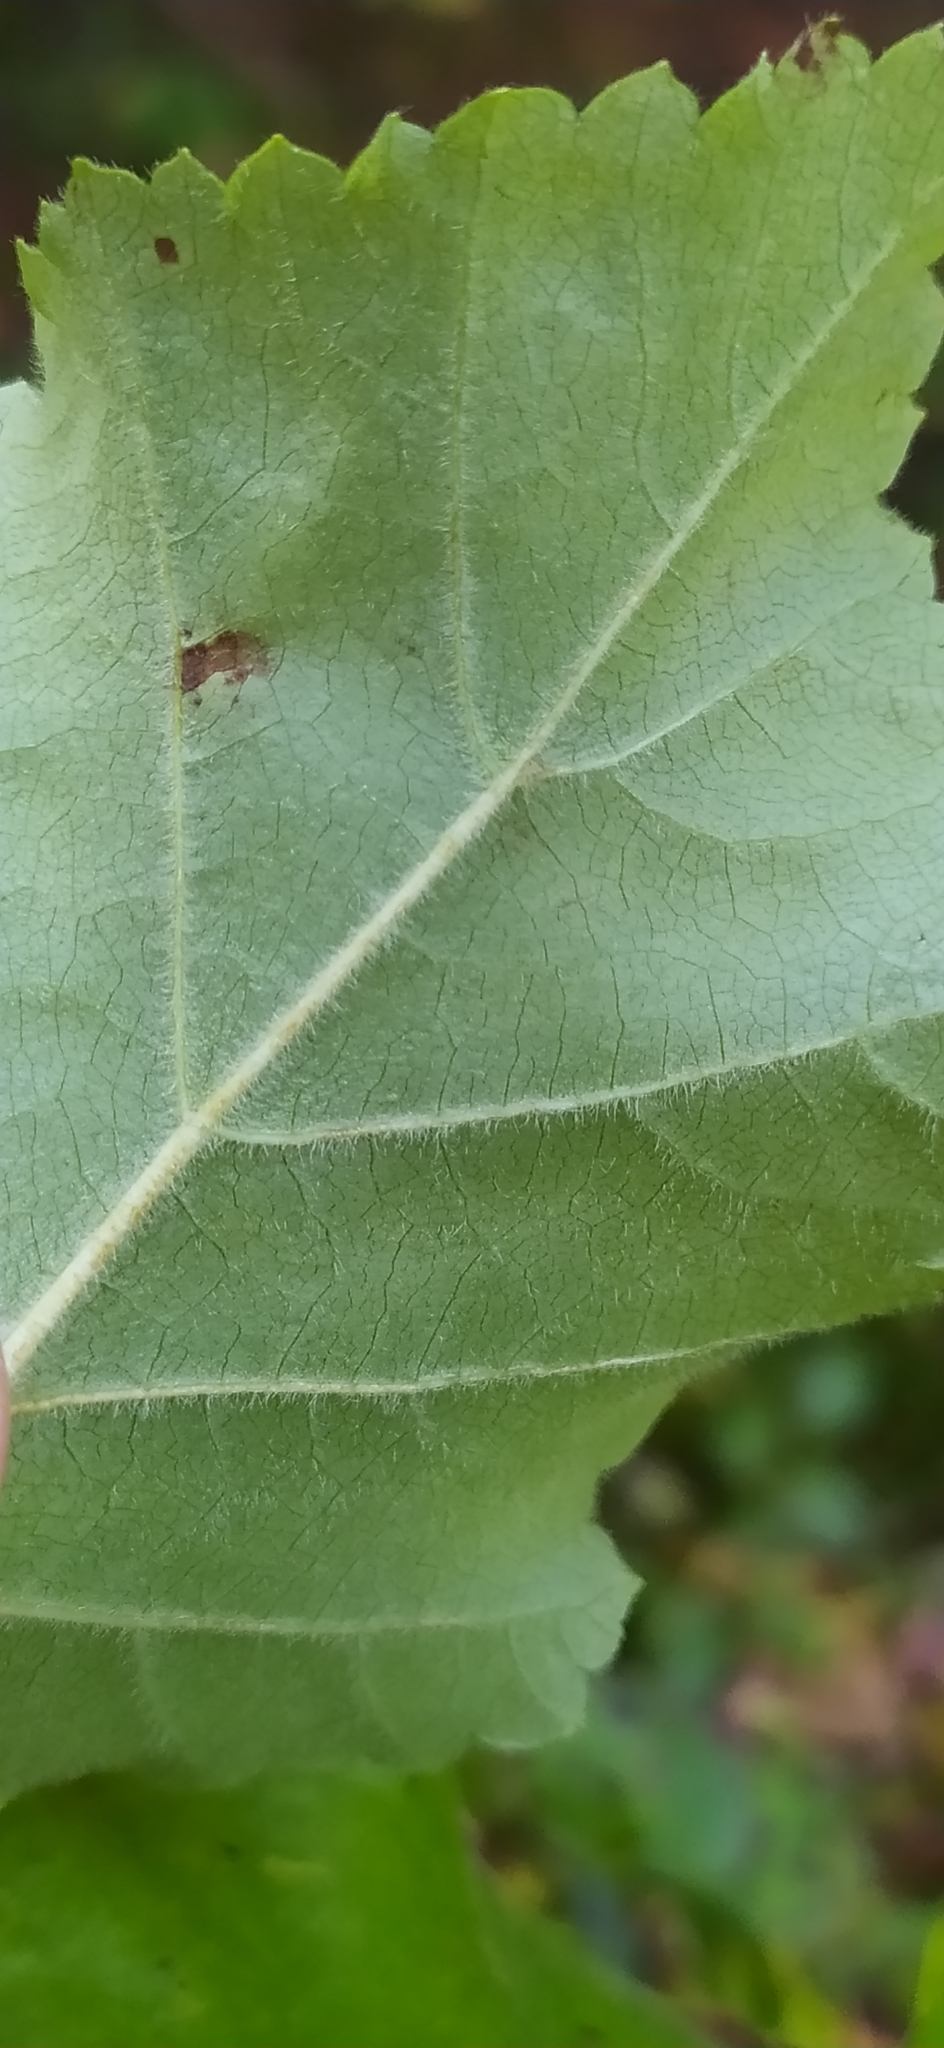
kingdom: Plantae
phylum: Tracheophyta
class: Magnoliopsida
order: Fagales
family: Betulaceae
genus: Betula
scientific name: Betula pubescens
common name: Downy birch
